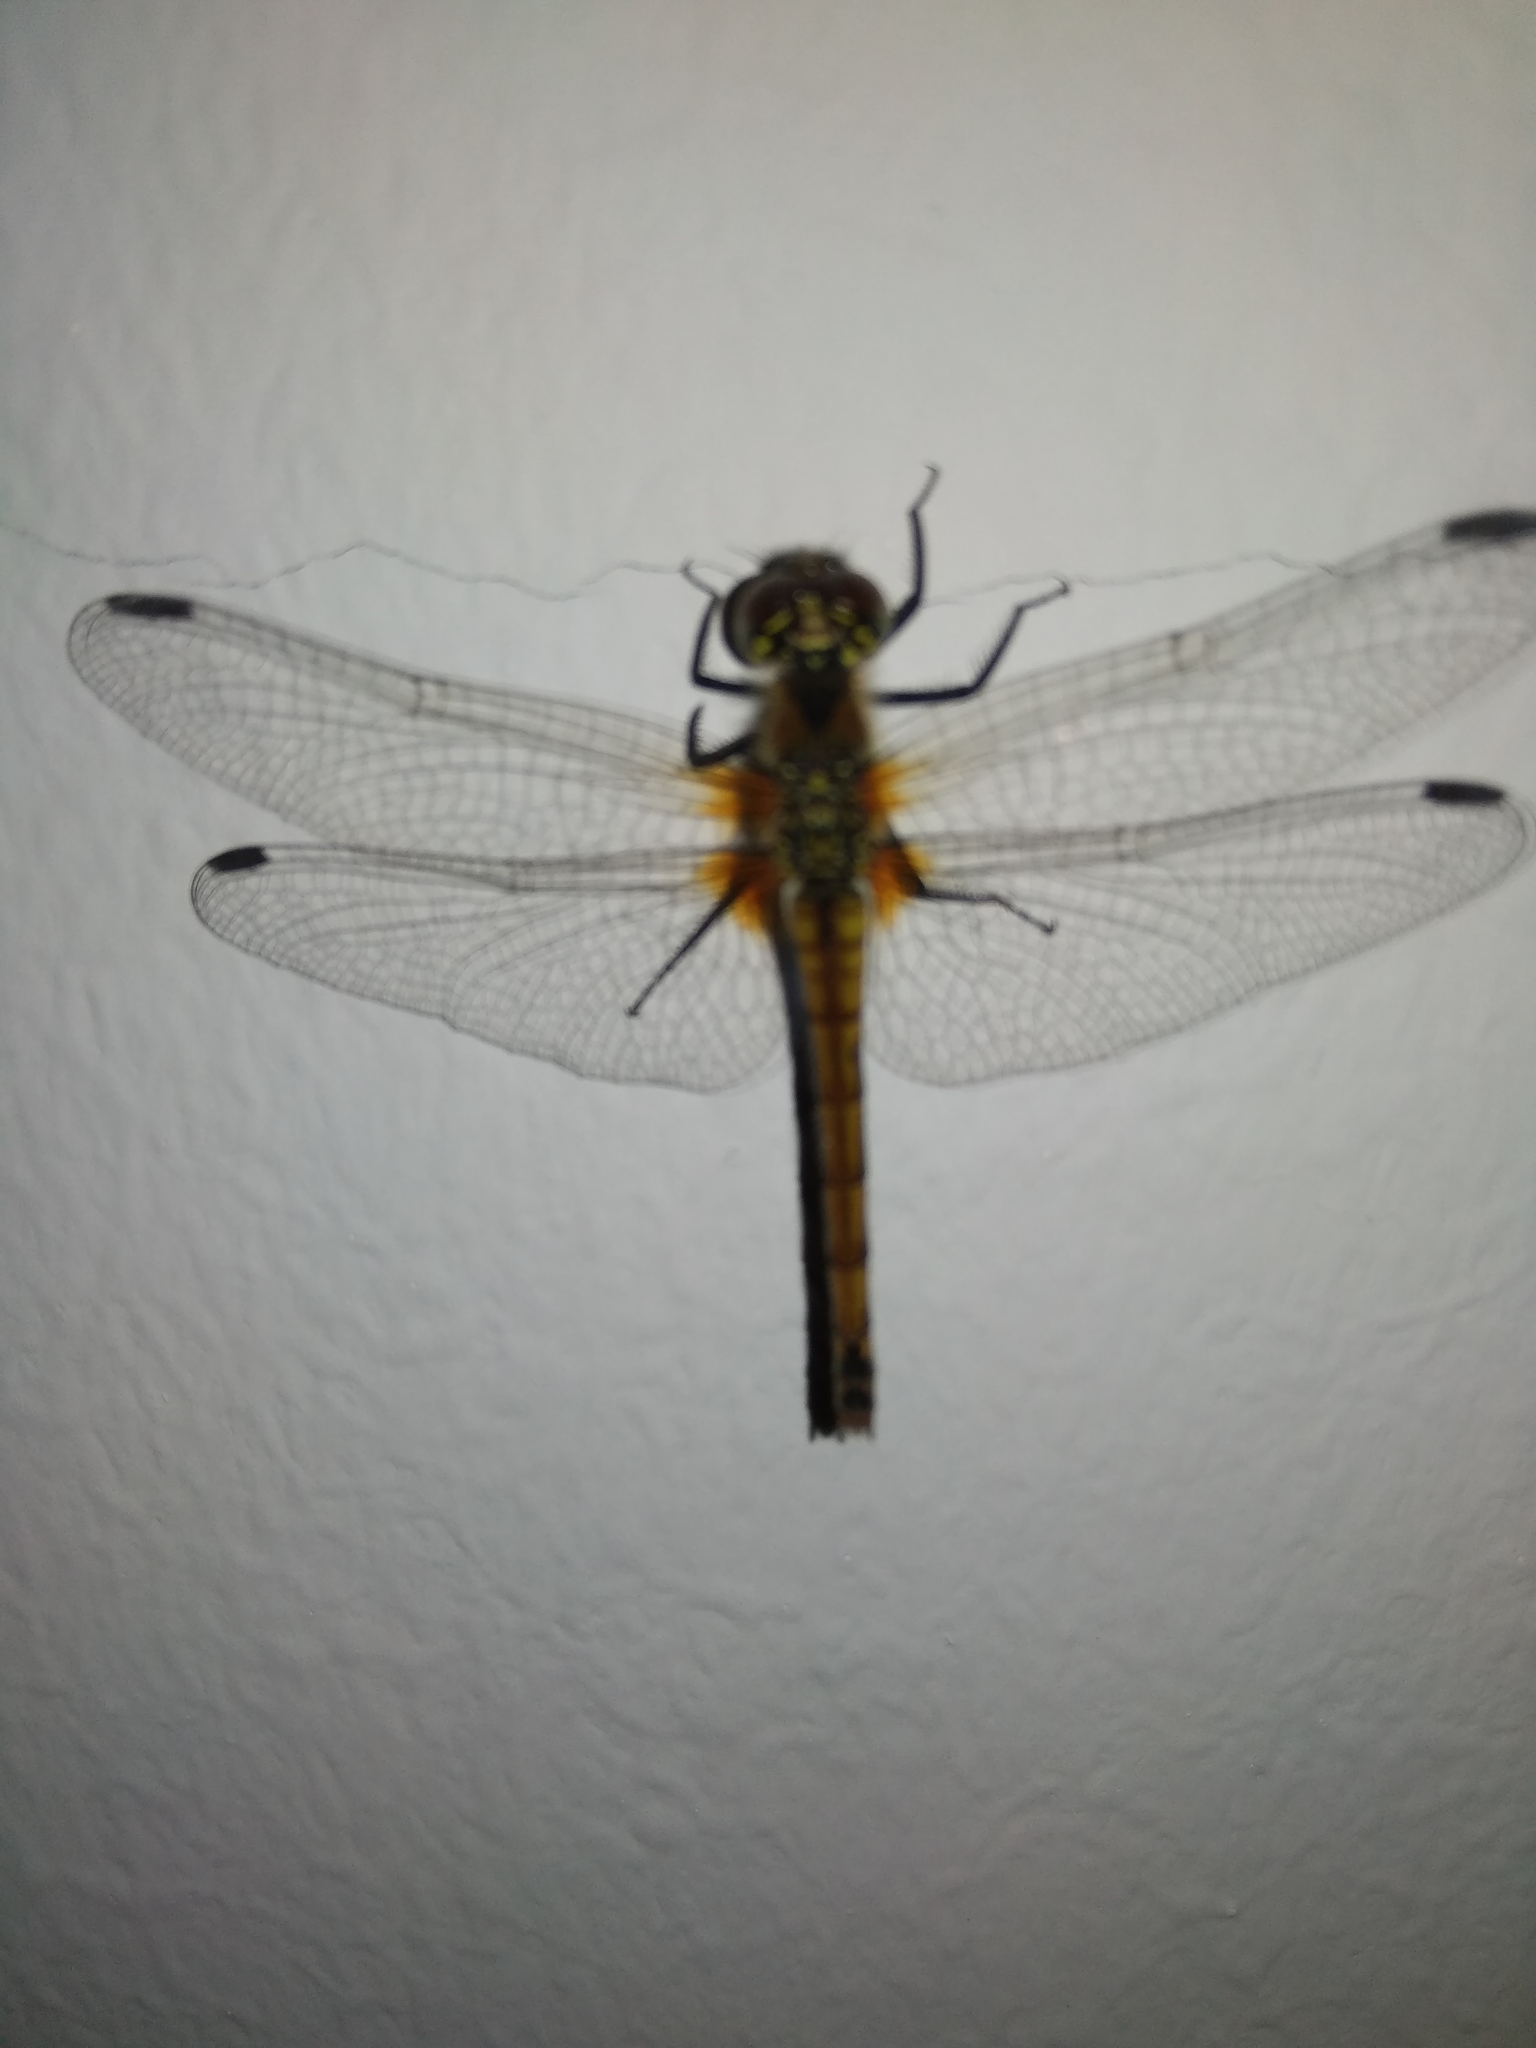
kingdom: Animalia
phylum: Arthropoda
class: Insecta
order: Odonata
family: Libellulidae
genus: Sympetrum
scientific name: Sympetrum danae
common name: Black darter
